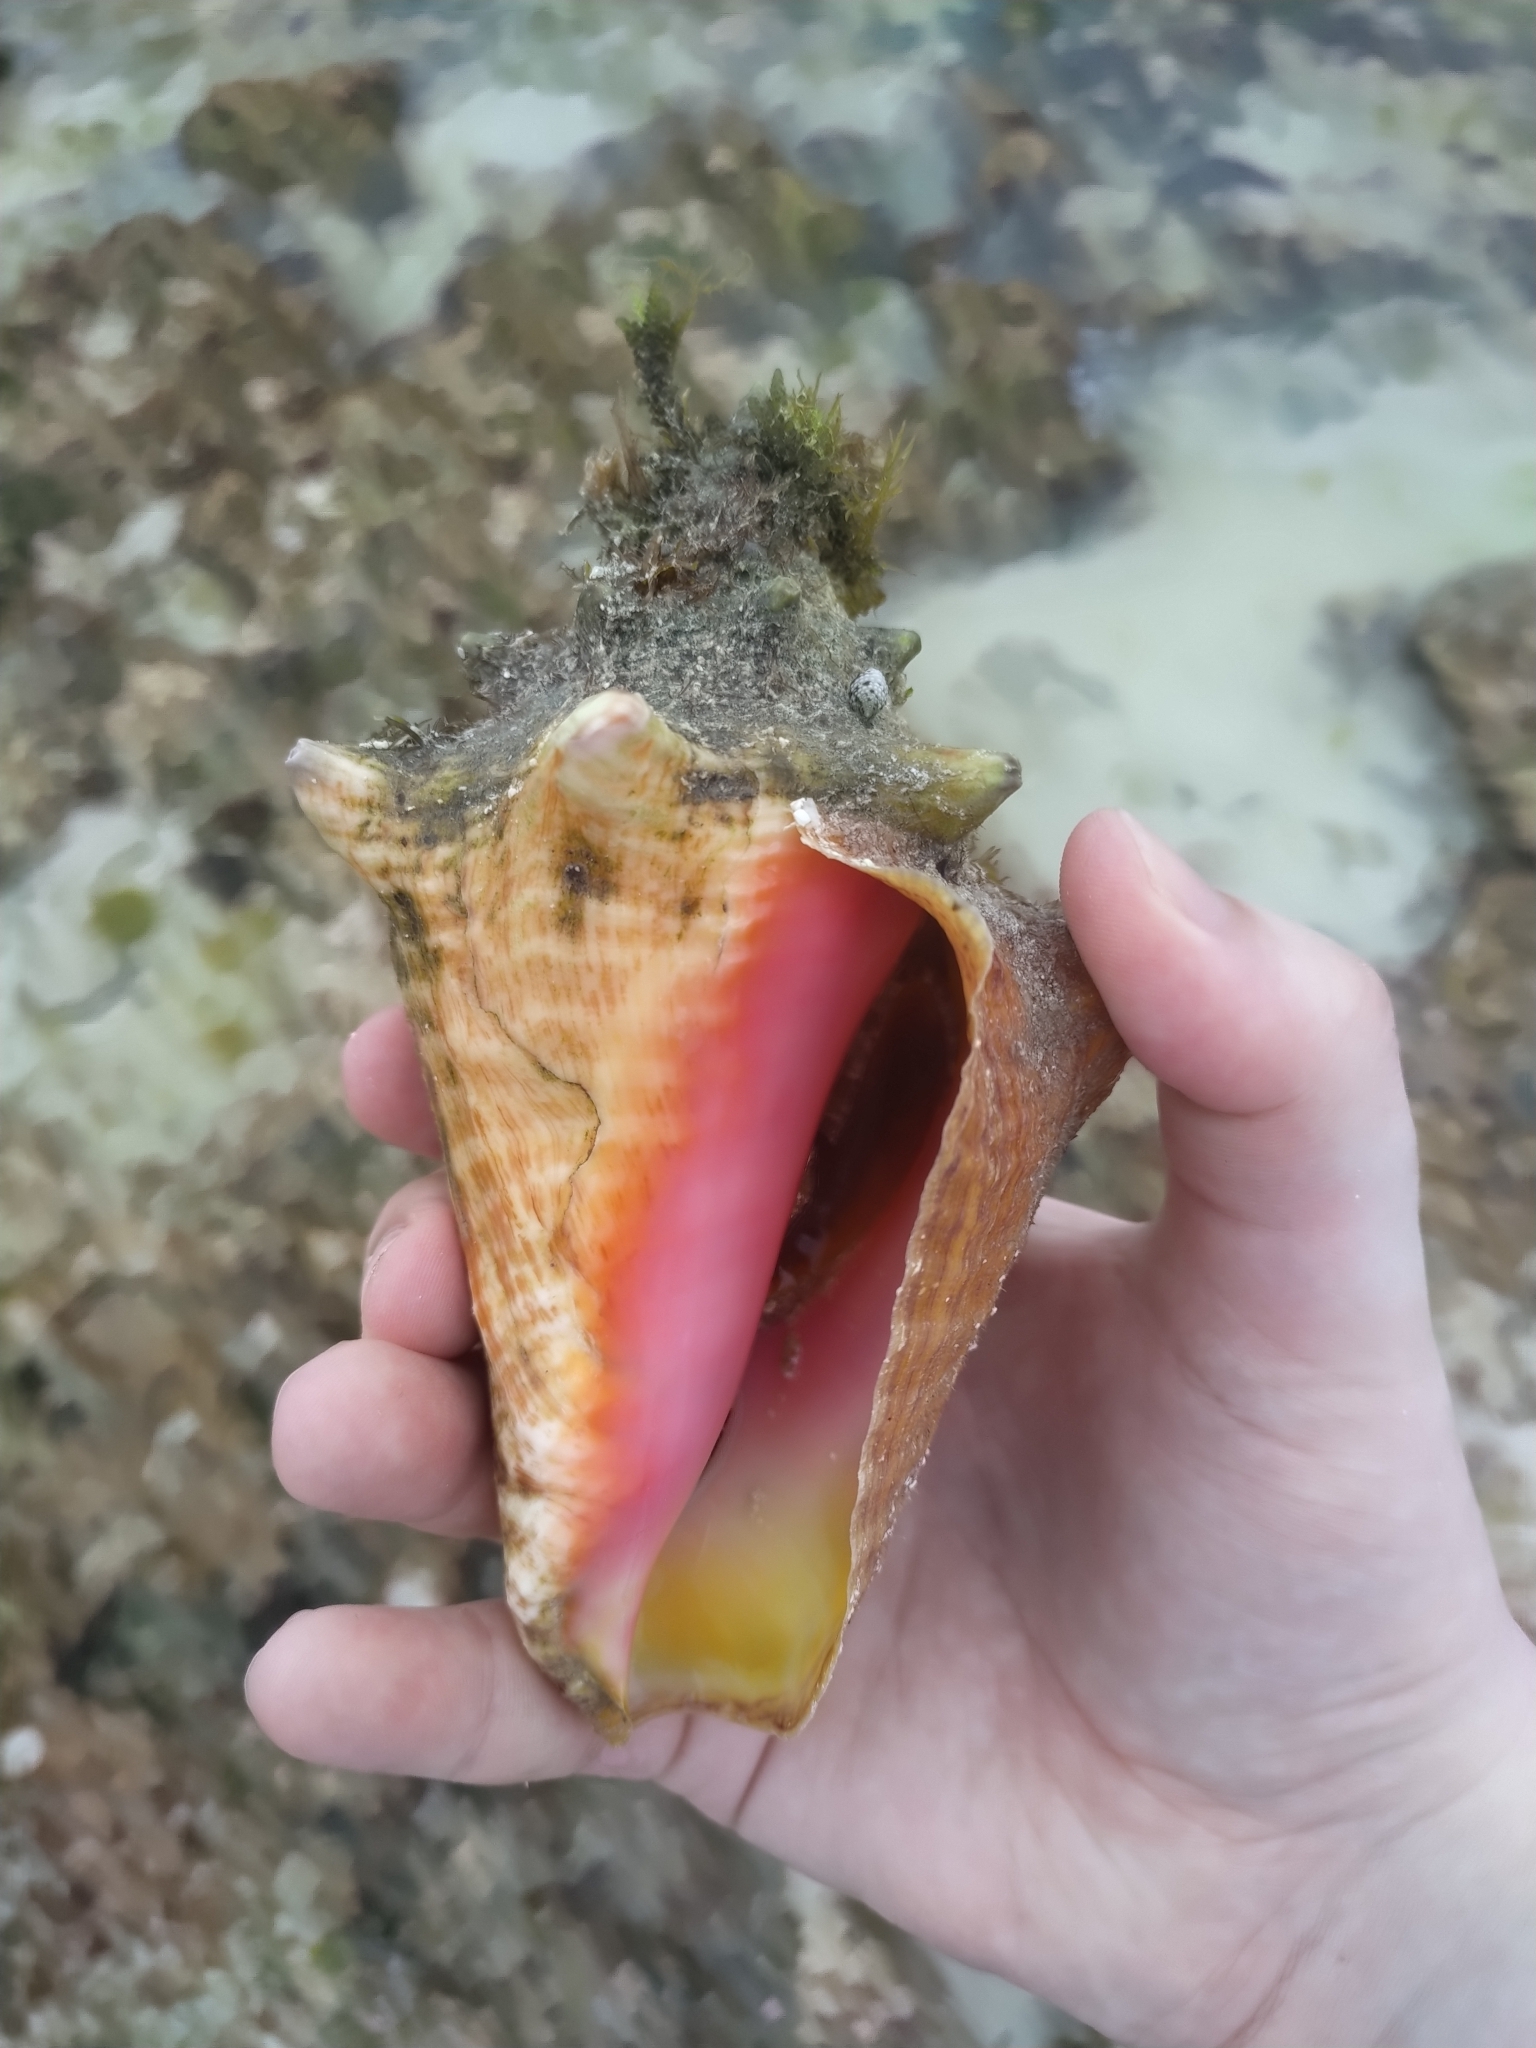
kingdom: Animalia
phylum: Mollusca
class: Gastropoda
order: Littorinimorpha
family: Strombidae
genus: Aliger
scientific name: Aliger gigas
